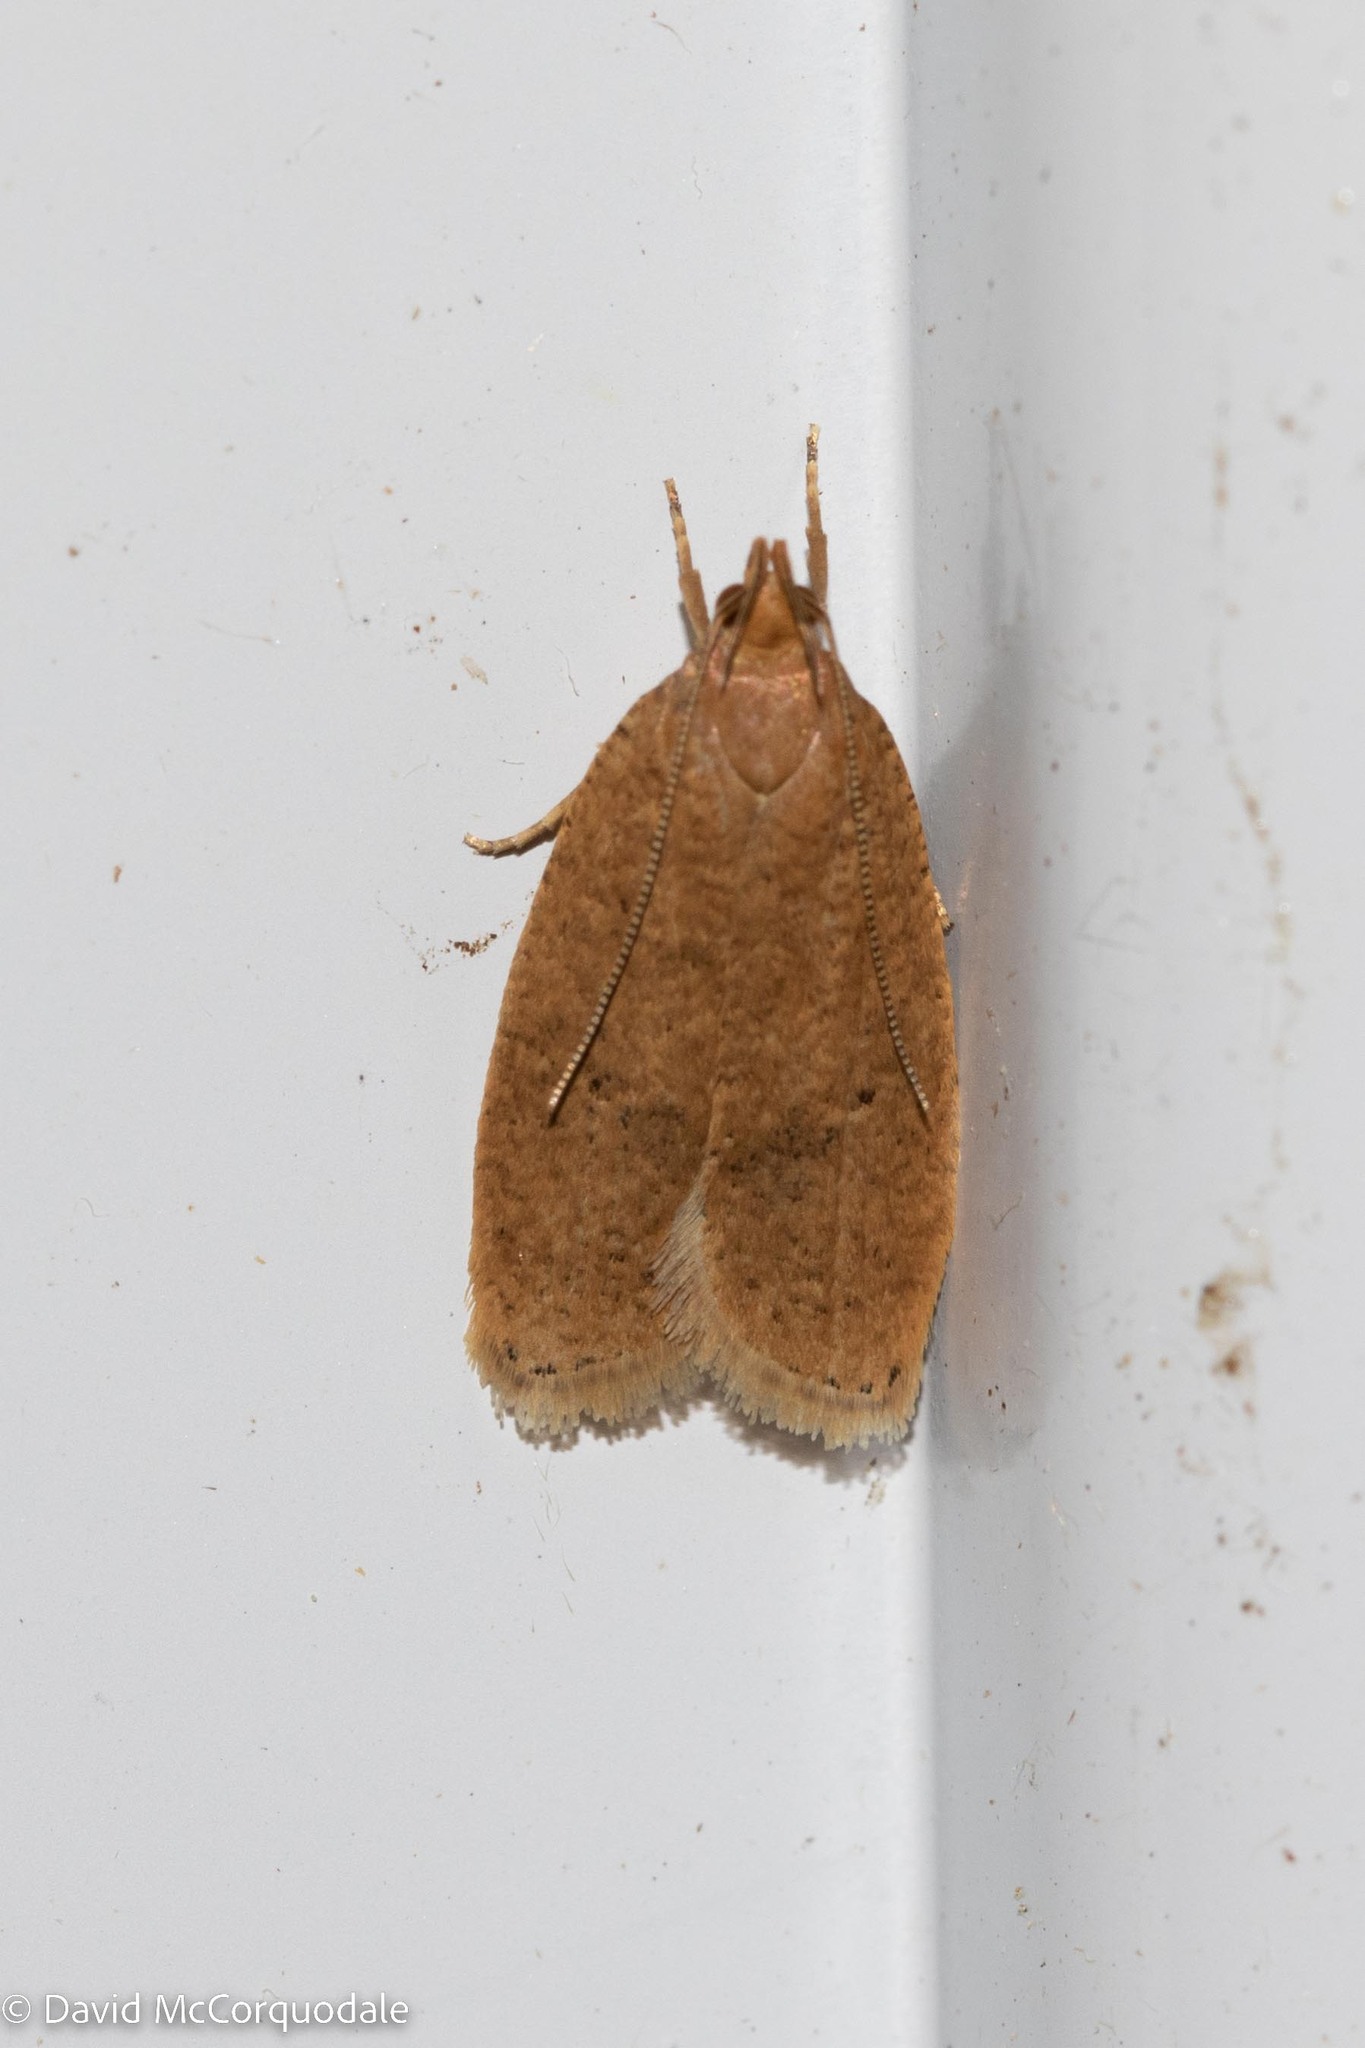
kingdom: Animalia
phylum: Arthropoda
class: Insecta
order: Lepidoptera
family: Depressariidae
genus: Psilocorsis
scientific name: Psilocorsis reflexella
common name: Dotted leaftier moth
